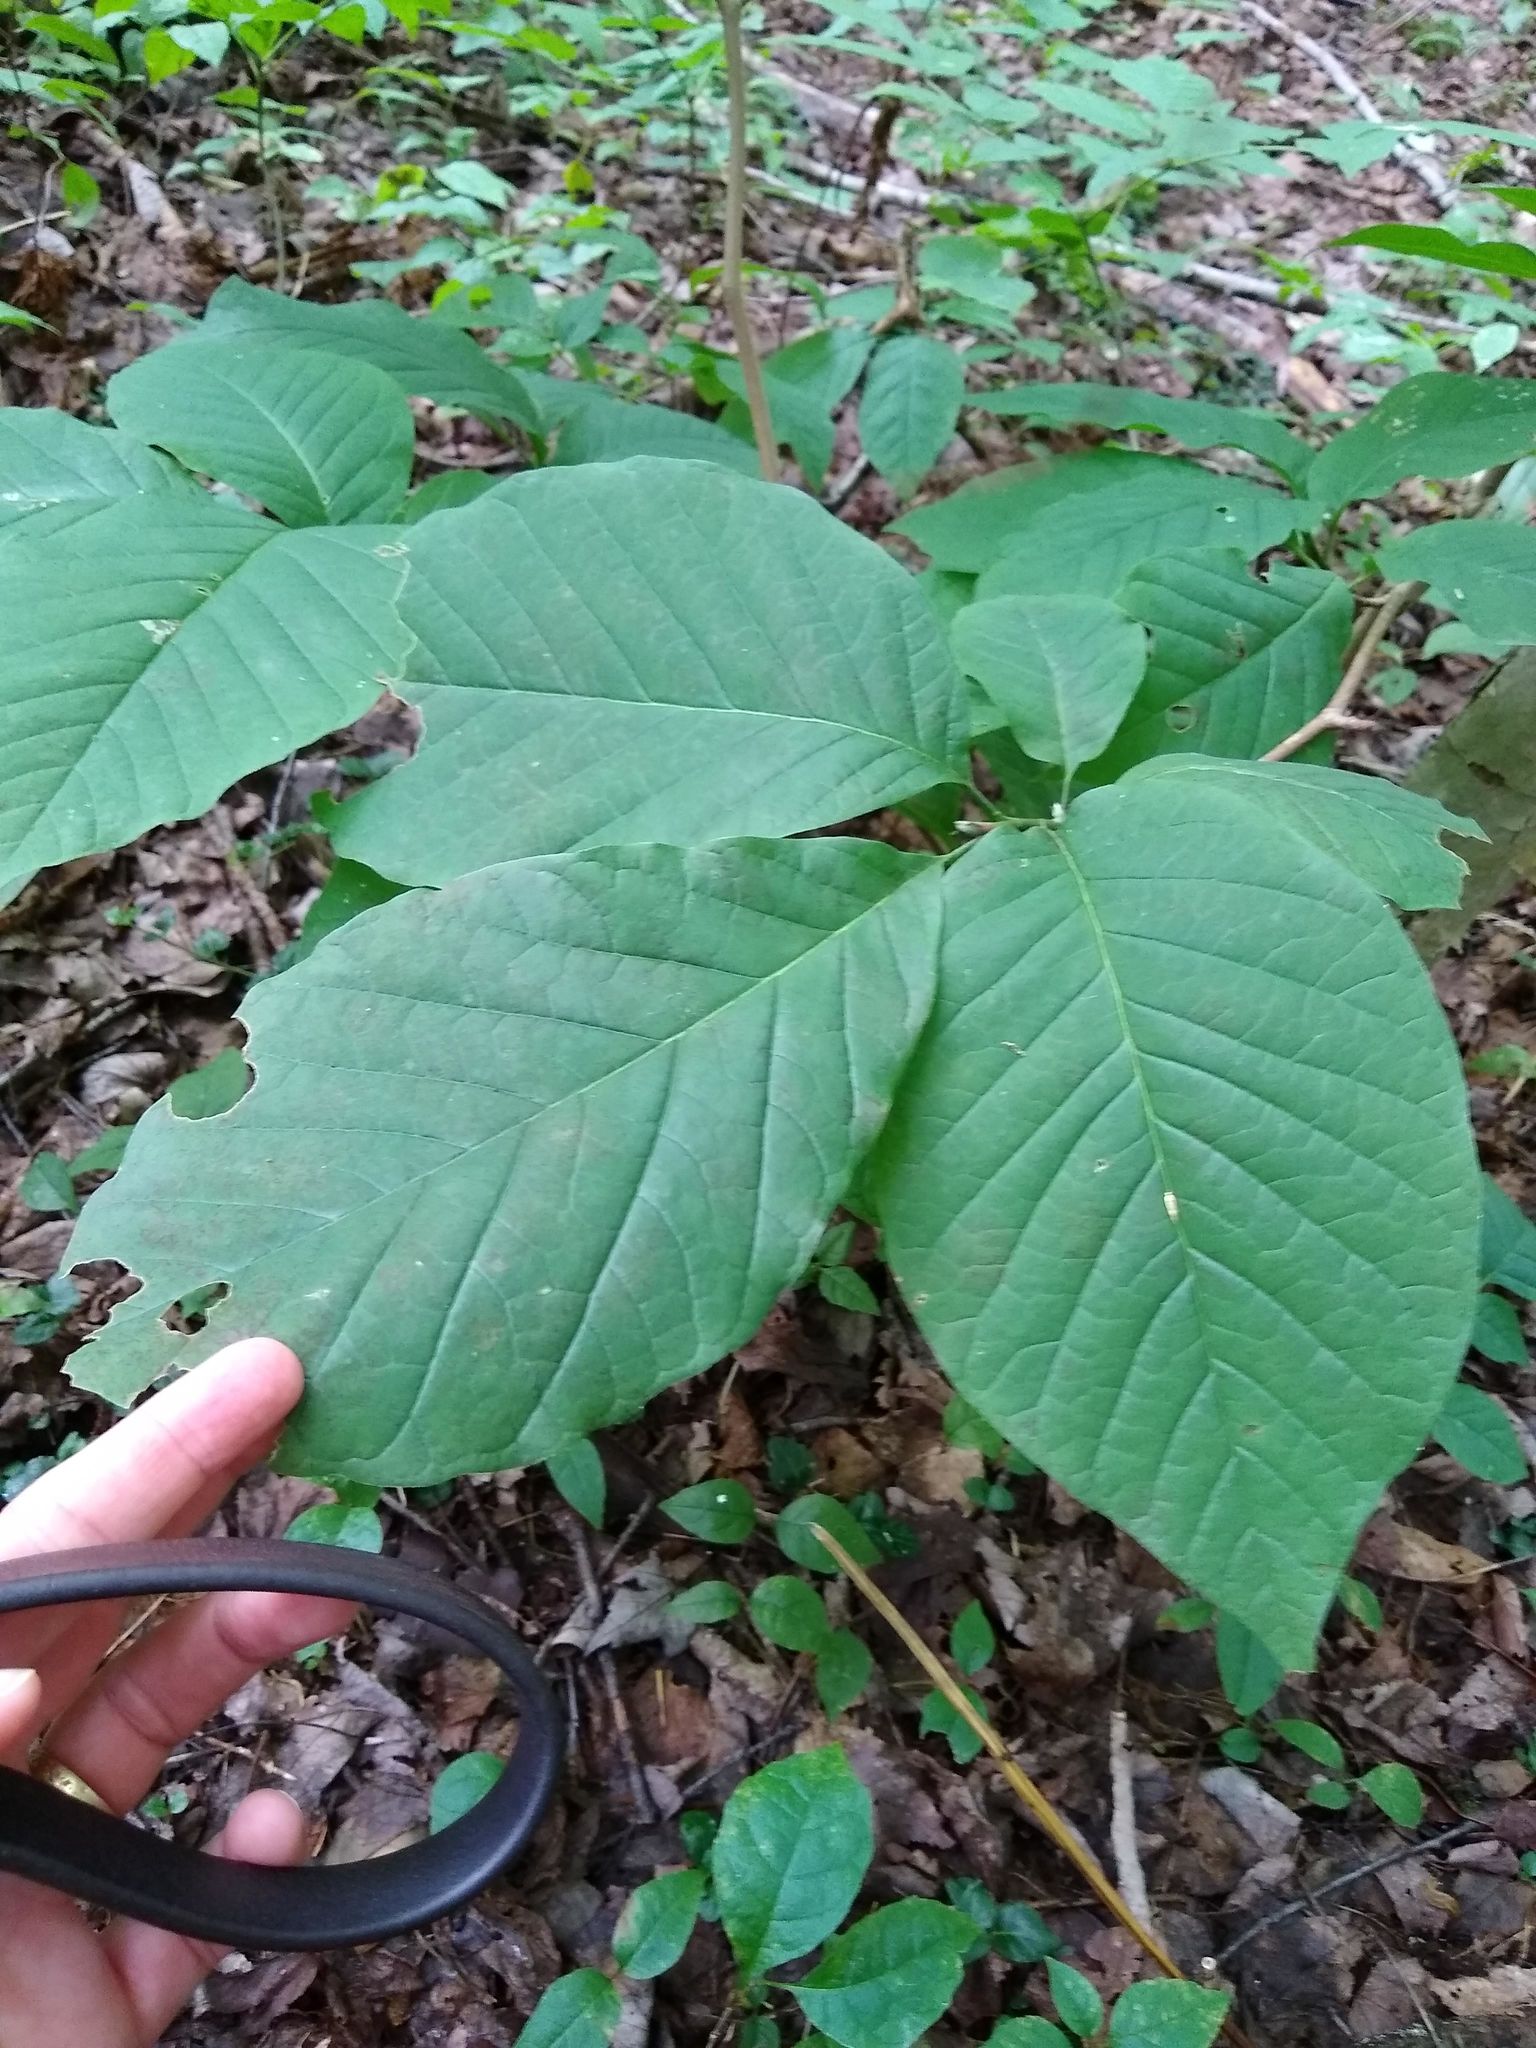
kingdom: Plantae
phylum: Tracheophyta
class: Magnoliopsida
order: Magnoliales
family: Magnoliaceae
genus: Magnolia
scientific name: Magnolia acuminata
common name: Cucumber magnolia
